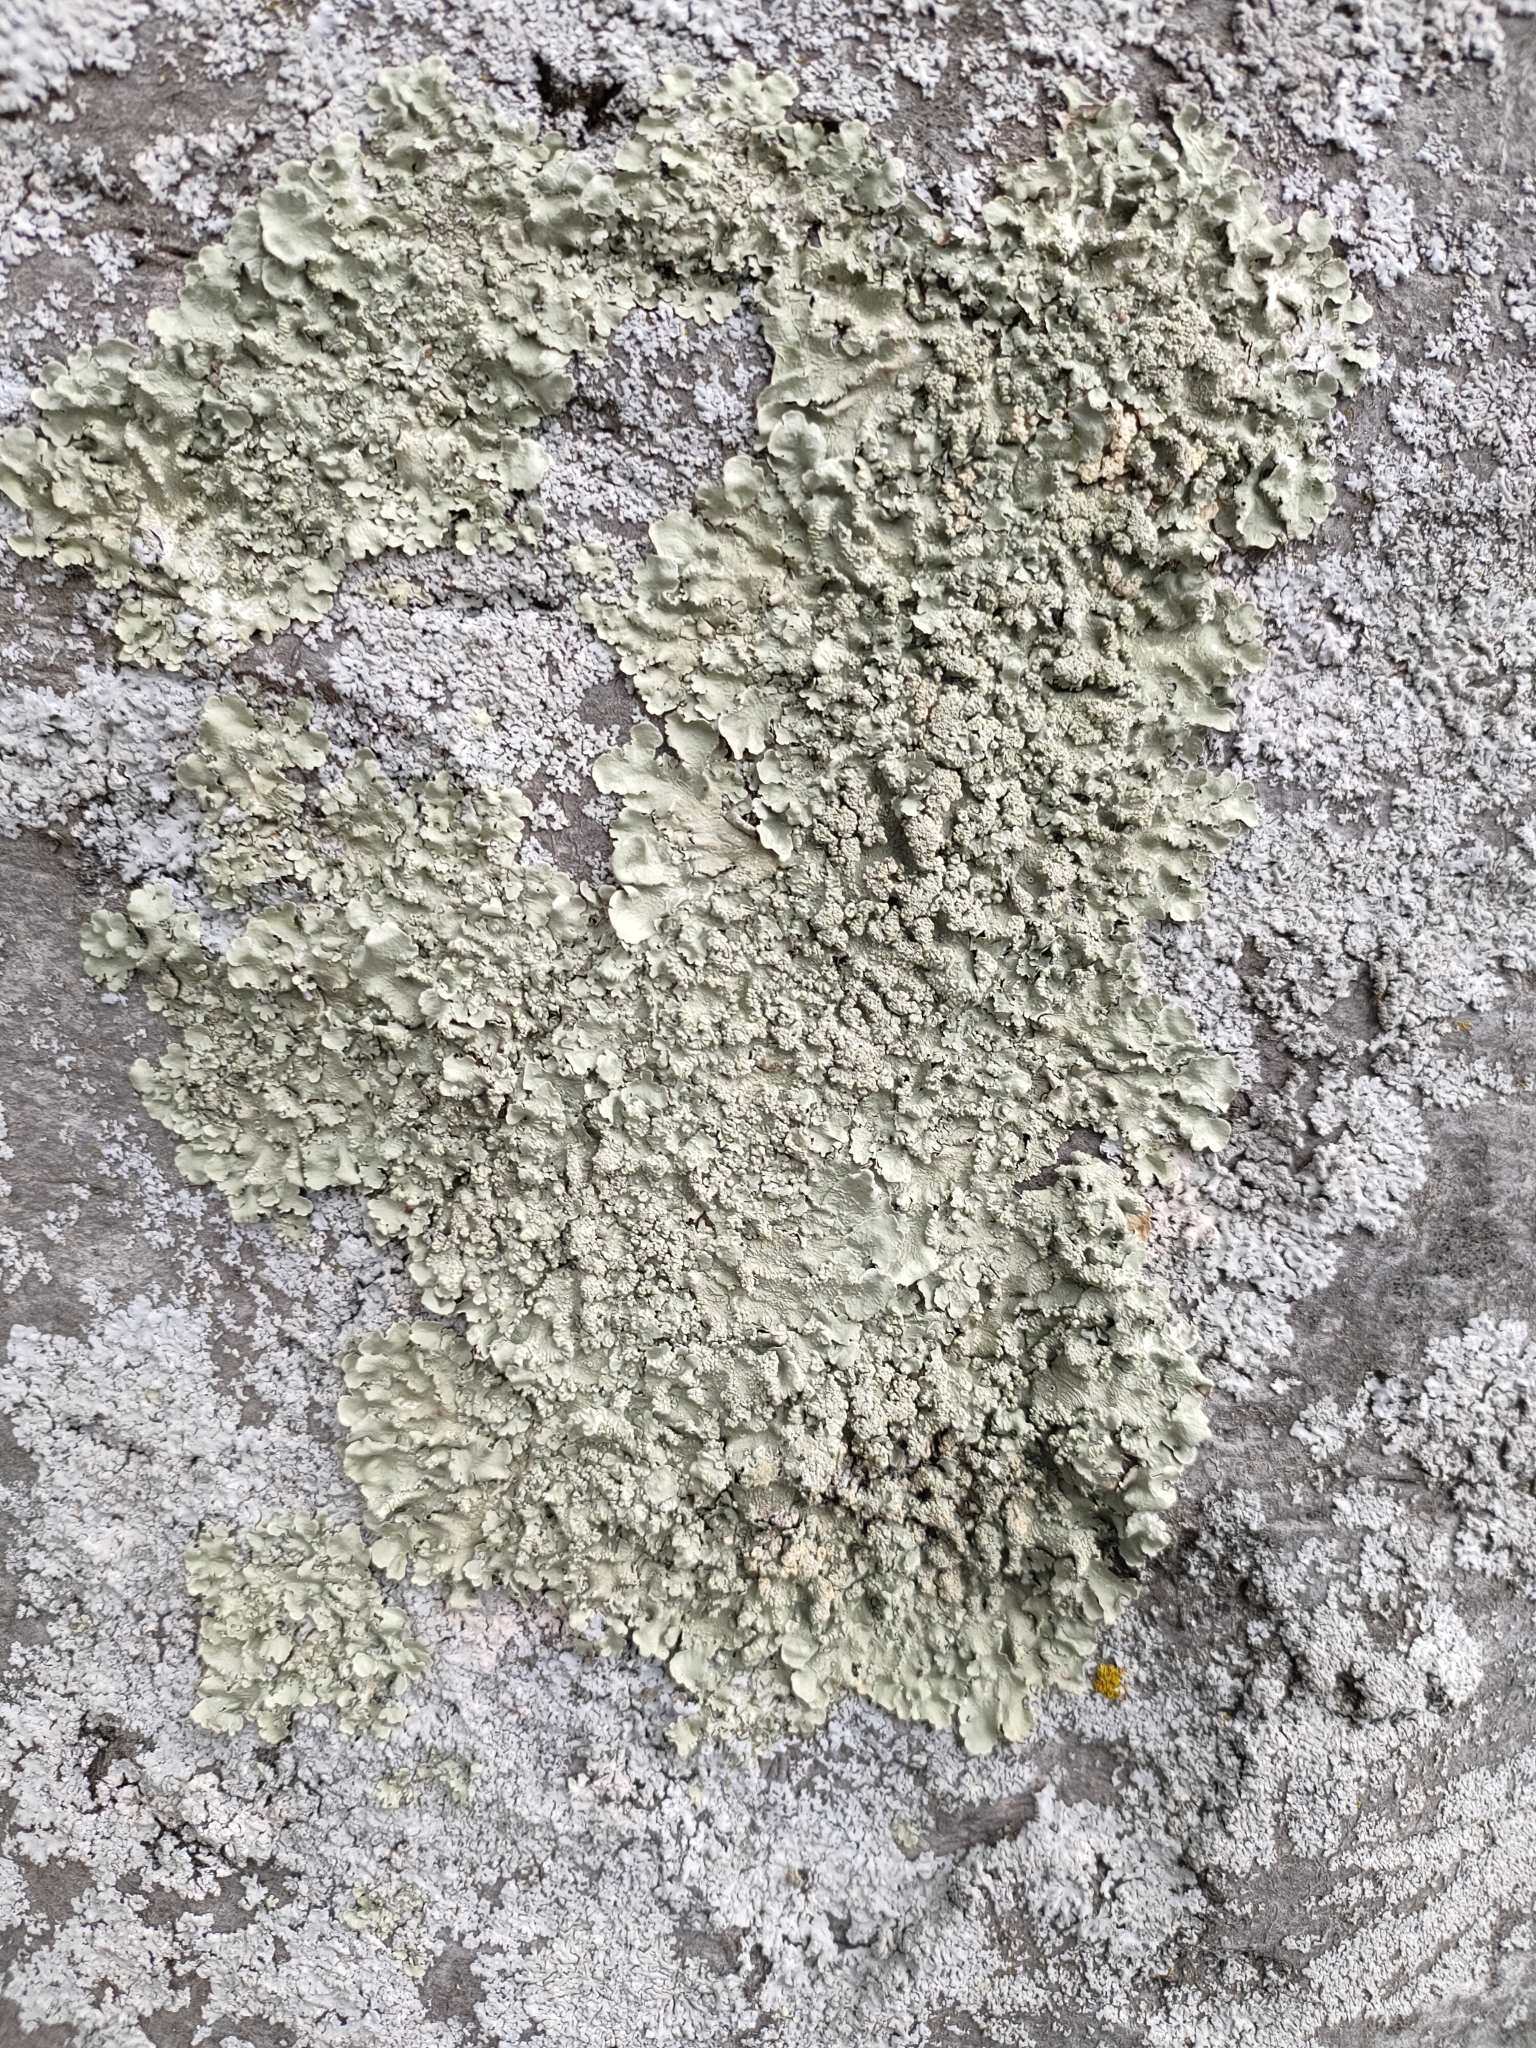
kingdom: Fungi
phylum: Ascomycota
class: Lecanoromycetes
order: Lecanorales
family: Parmeliaceae
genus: Flavoparmelia
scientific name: Flavoparmelia haysomii
